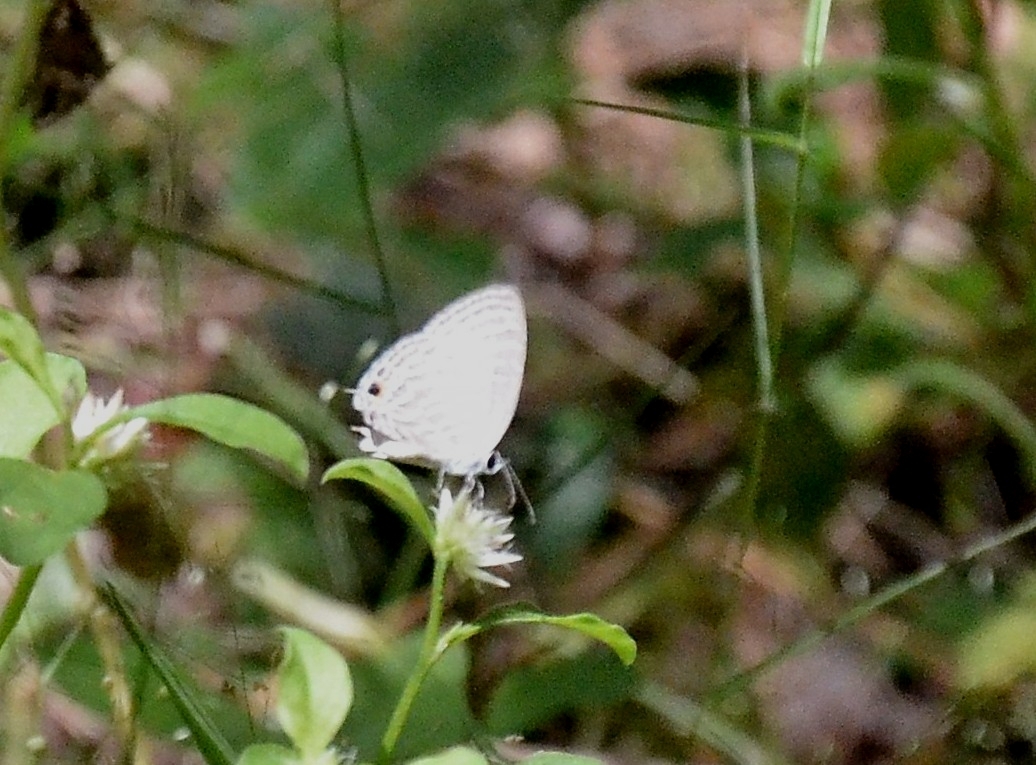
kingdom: Animalia
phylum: Arthropoda
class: Insecta
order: Lepidoptera
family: Lycaenidae
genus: Jamides
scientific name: Jamides celeno
